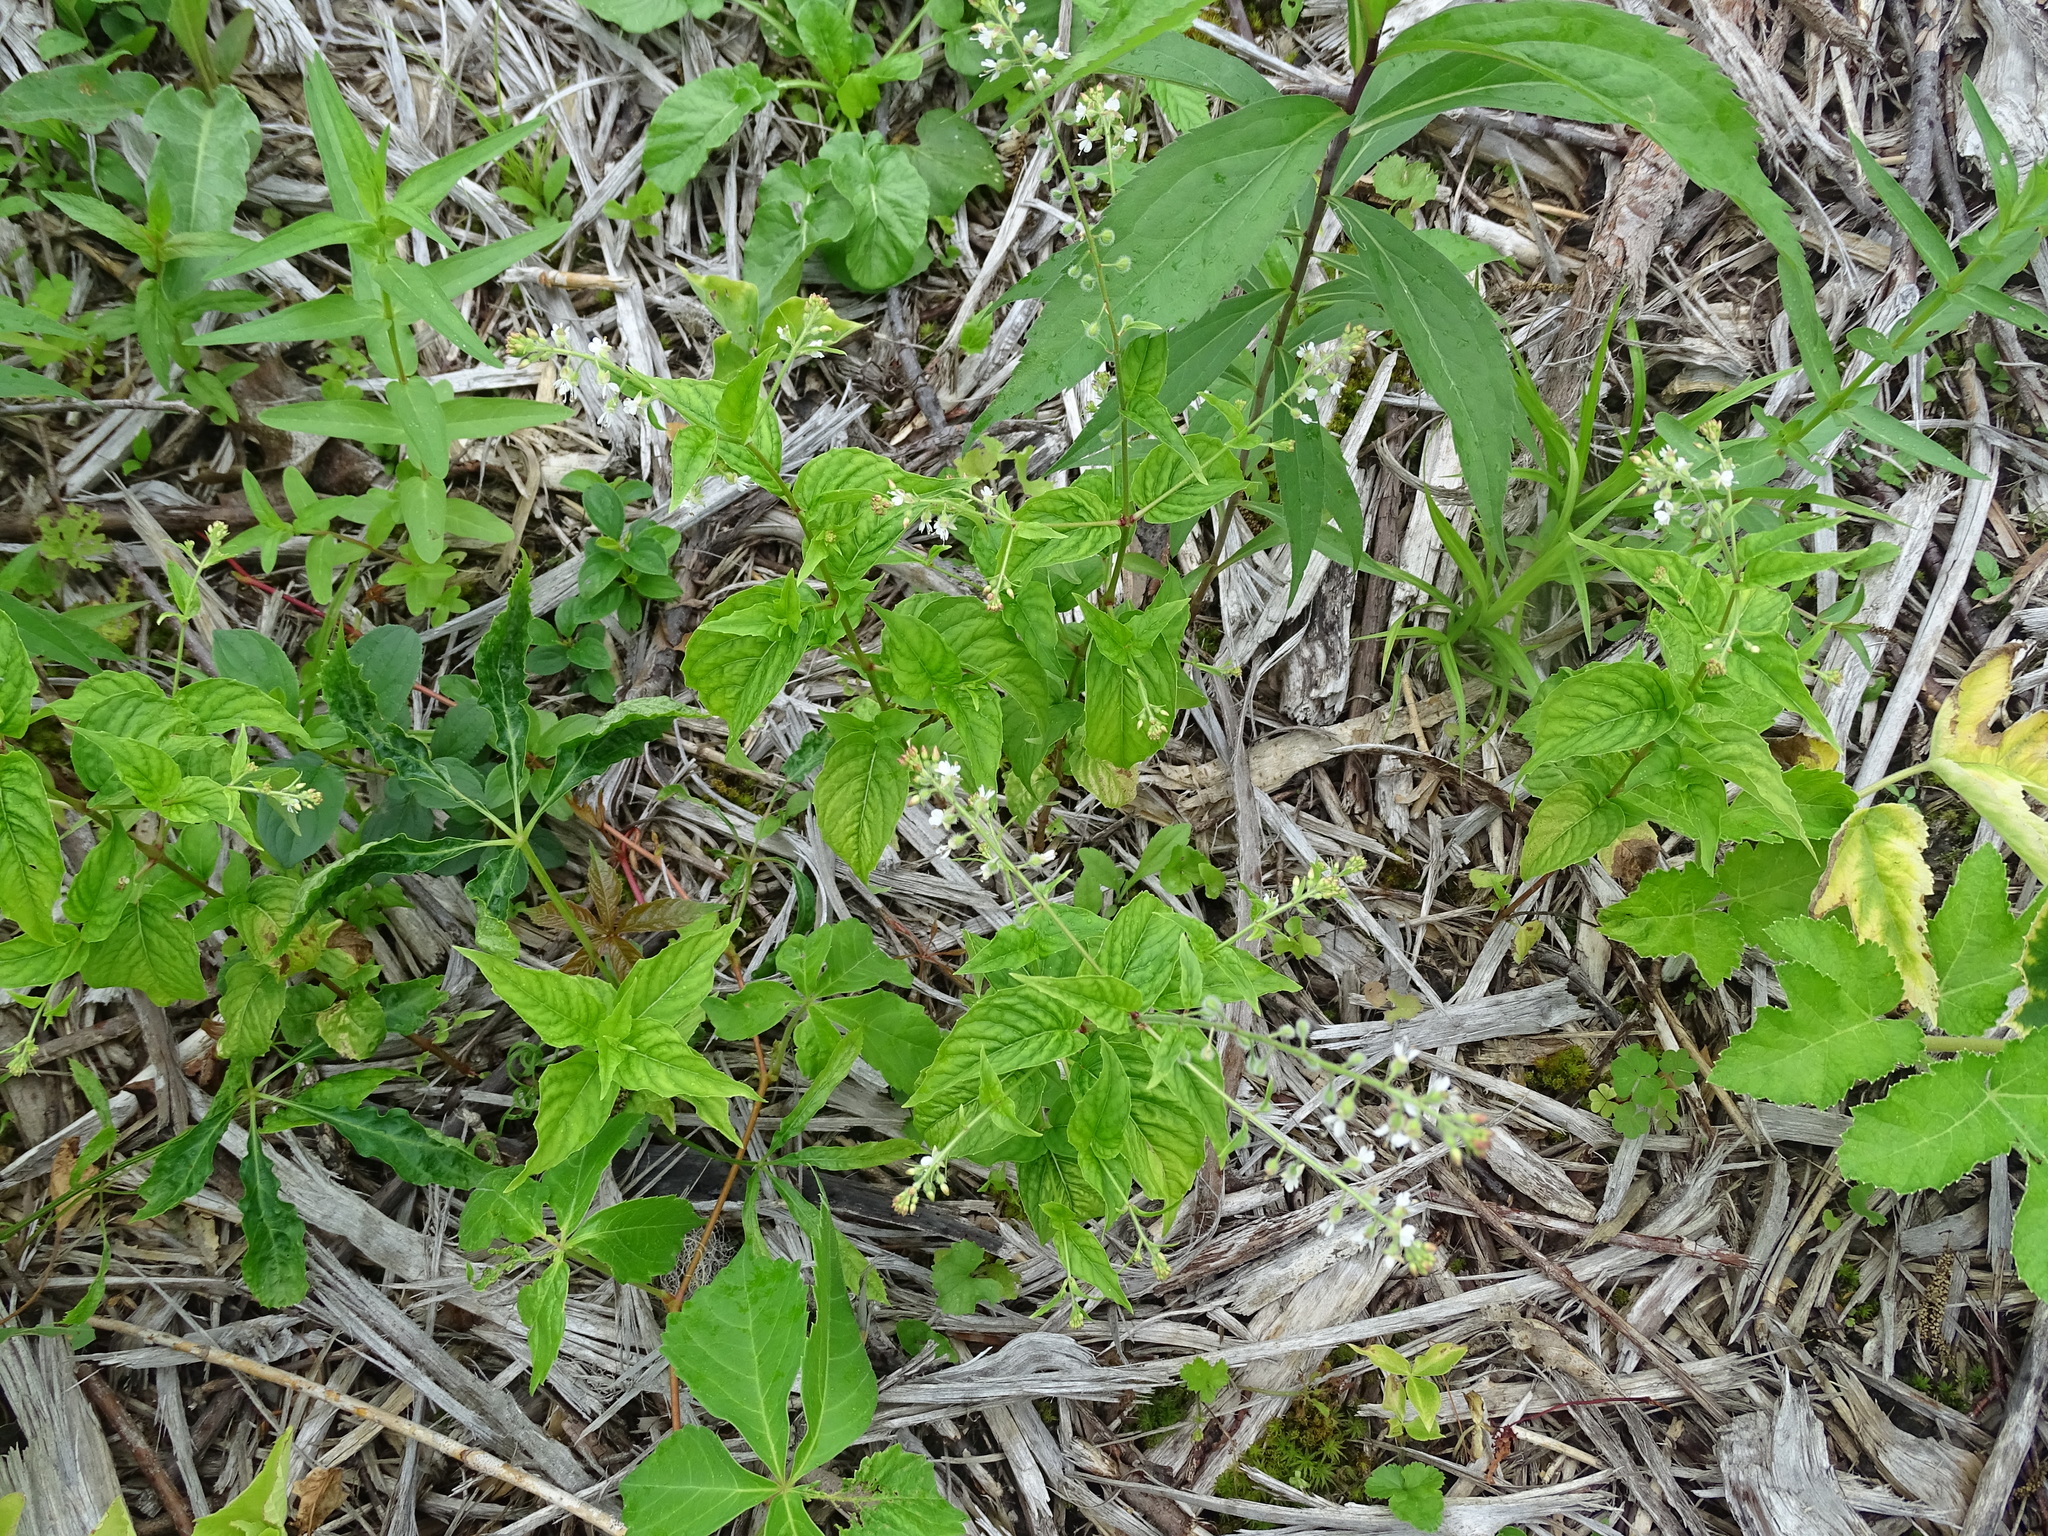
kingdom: Plantae
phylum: Tracheophyta
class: Magnoliopsida
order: Myrtales
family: Onagraceae
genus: Circaea
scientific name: Circaea canadensis
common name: Broad-leaved enchanter's nightshade
